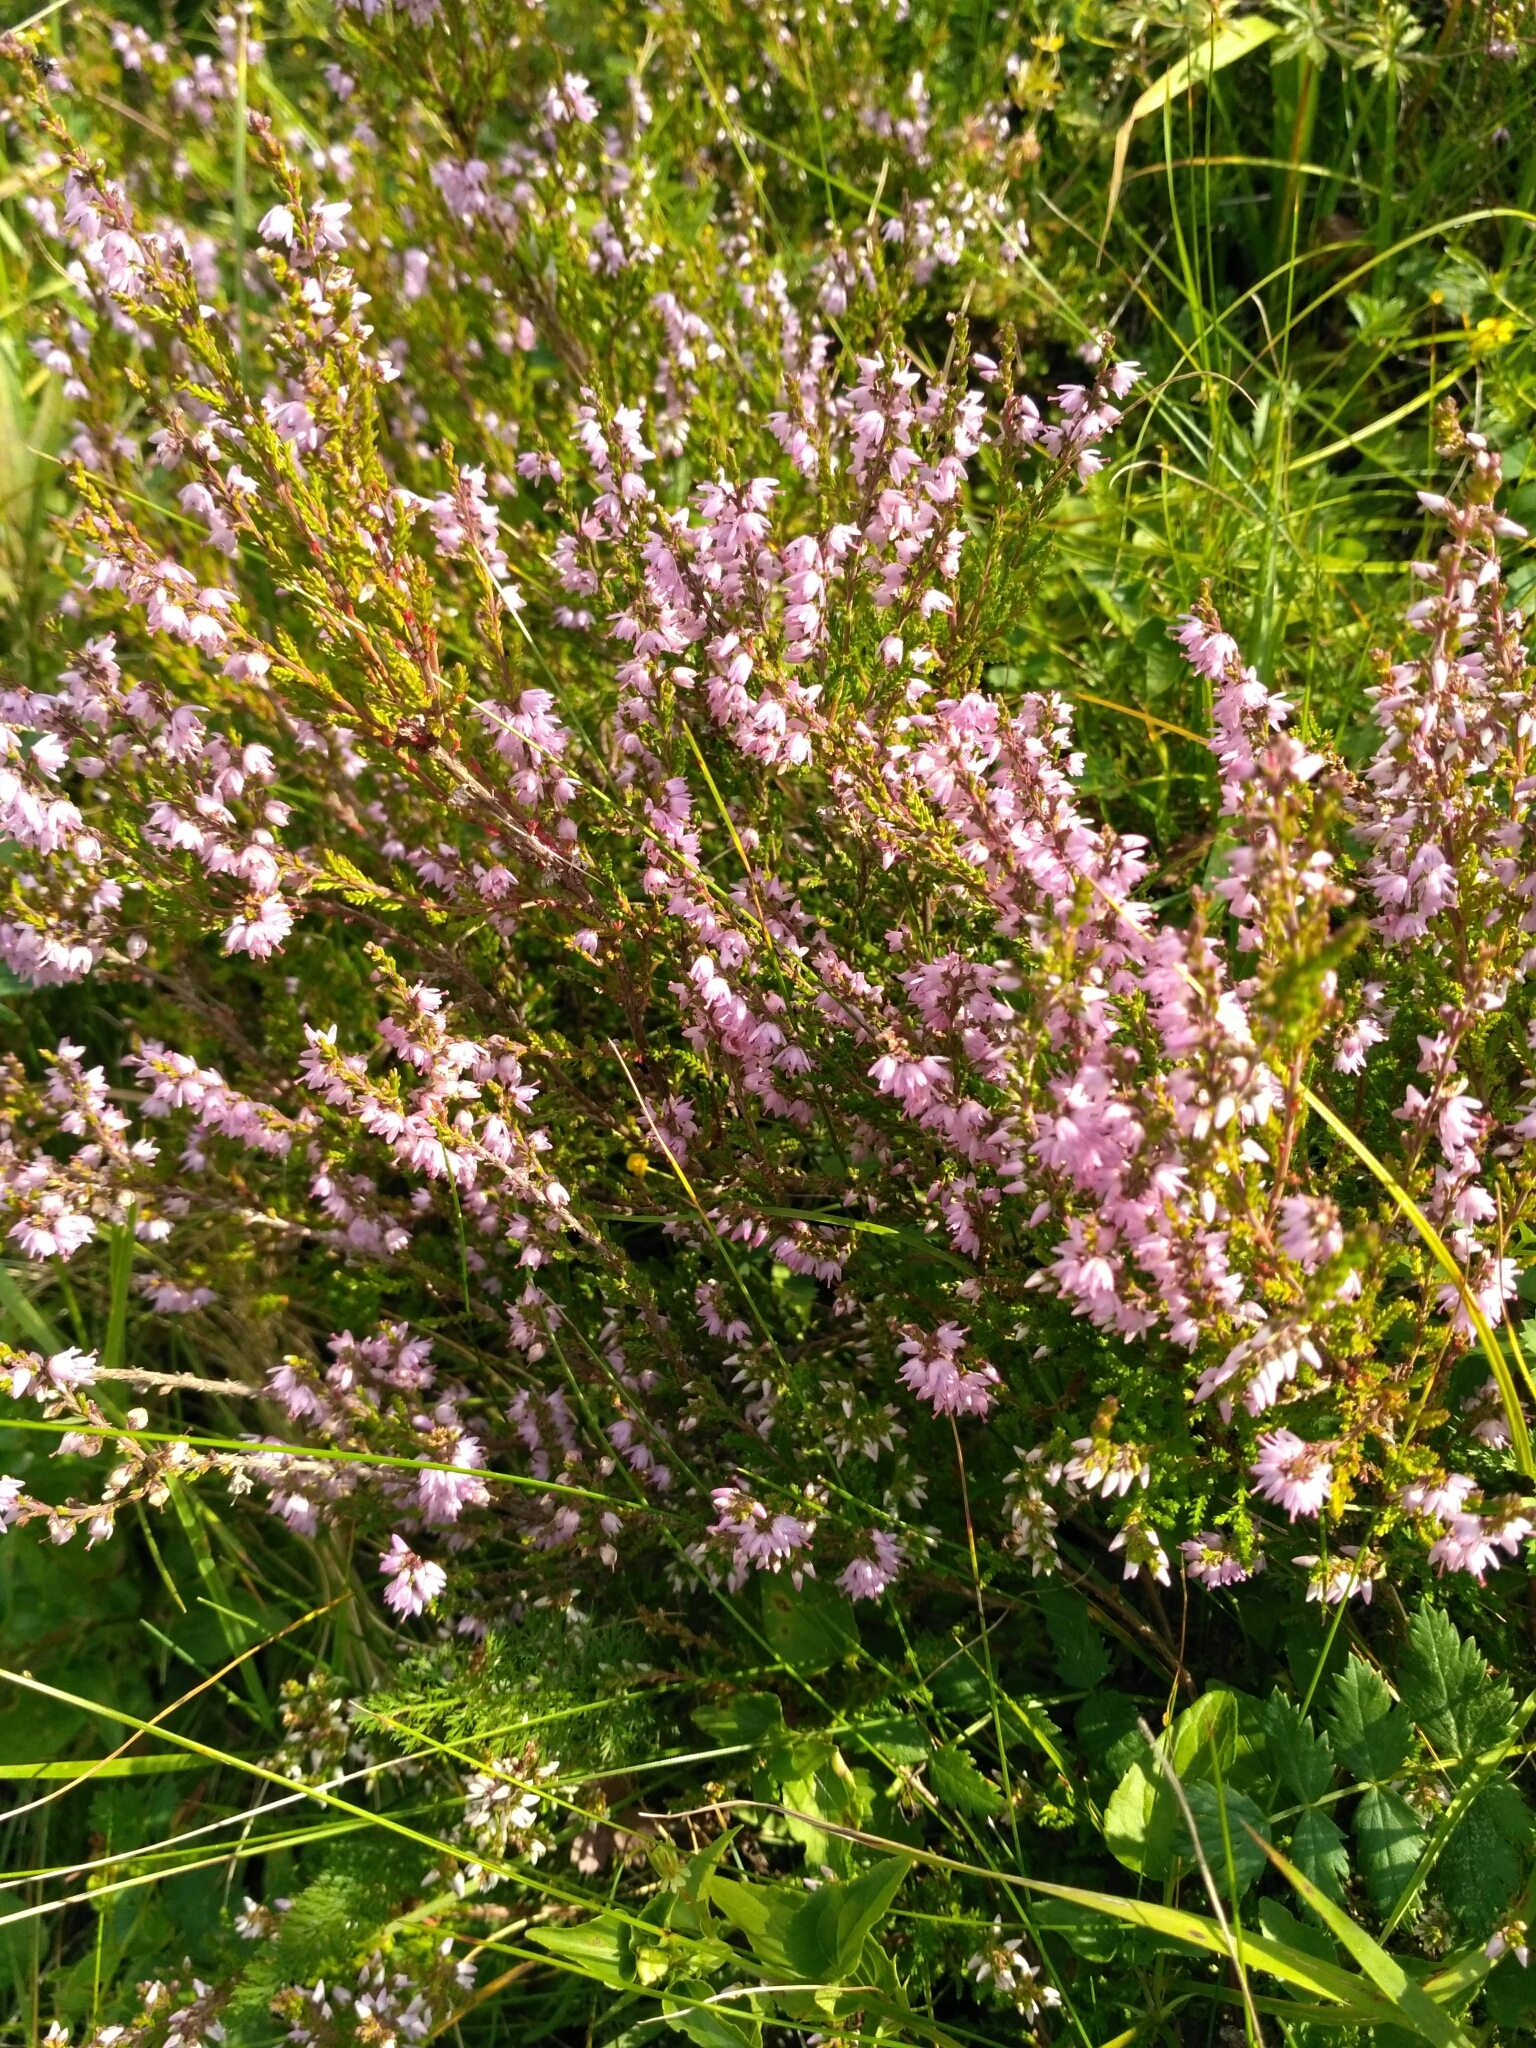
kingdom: Plantae
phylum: Tracheophyta
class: Magnoliopsida
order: Ericales
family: Ericaceae
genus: Calluna
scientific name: Calluna vulgaris
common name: Heather
